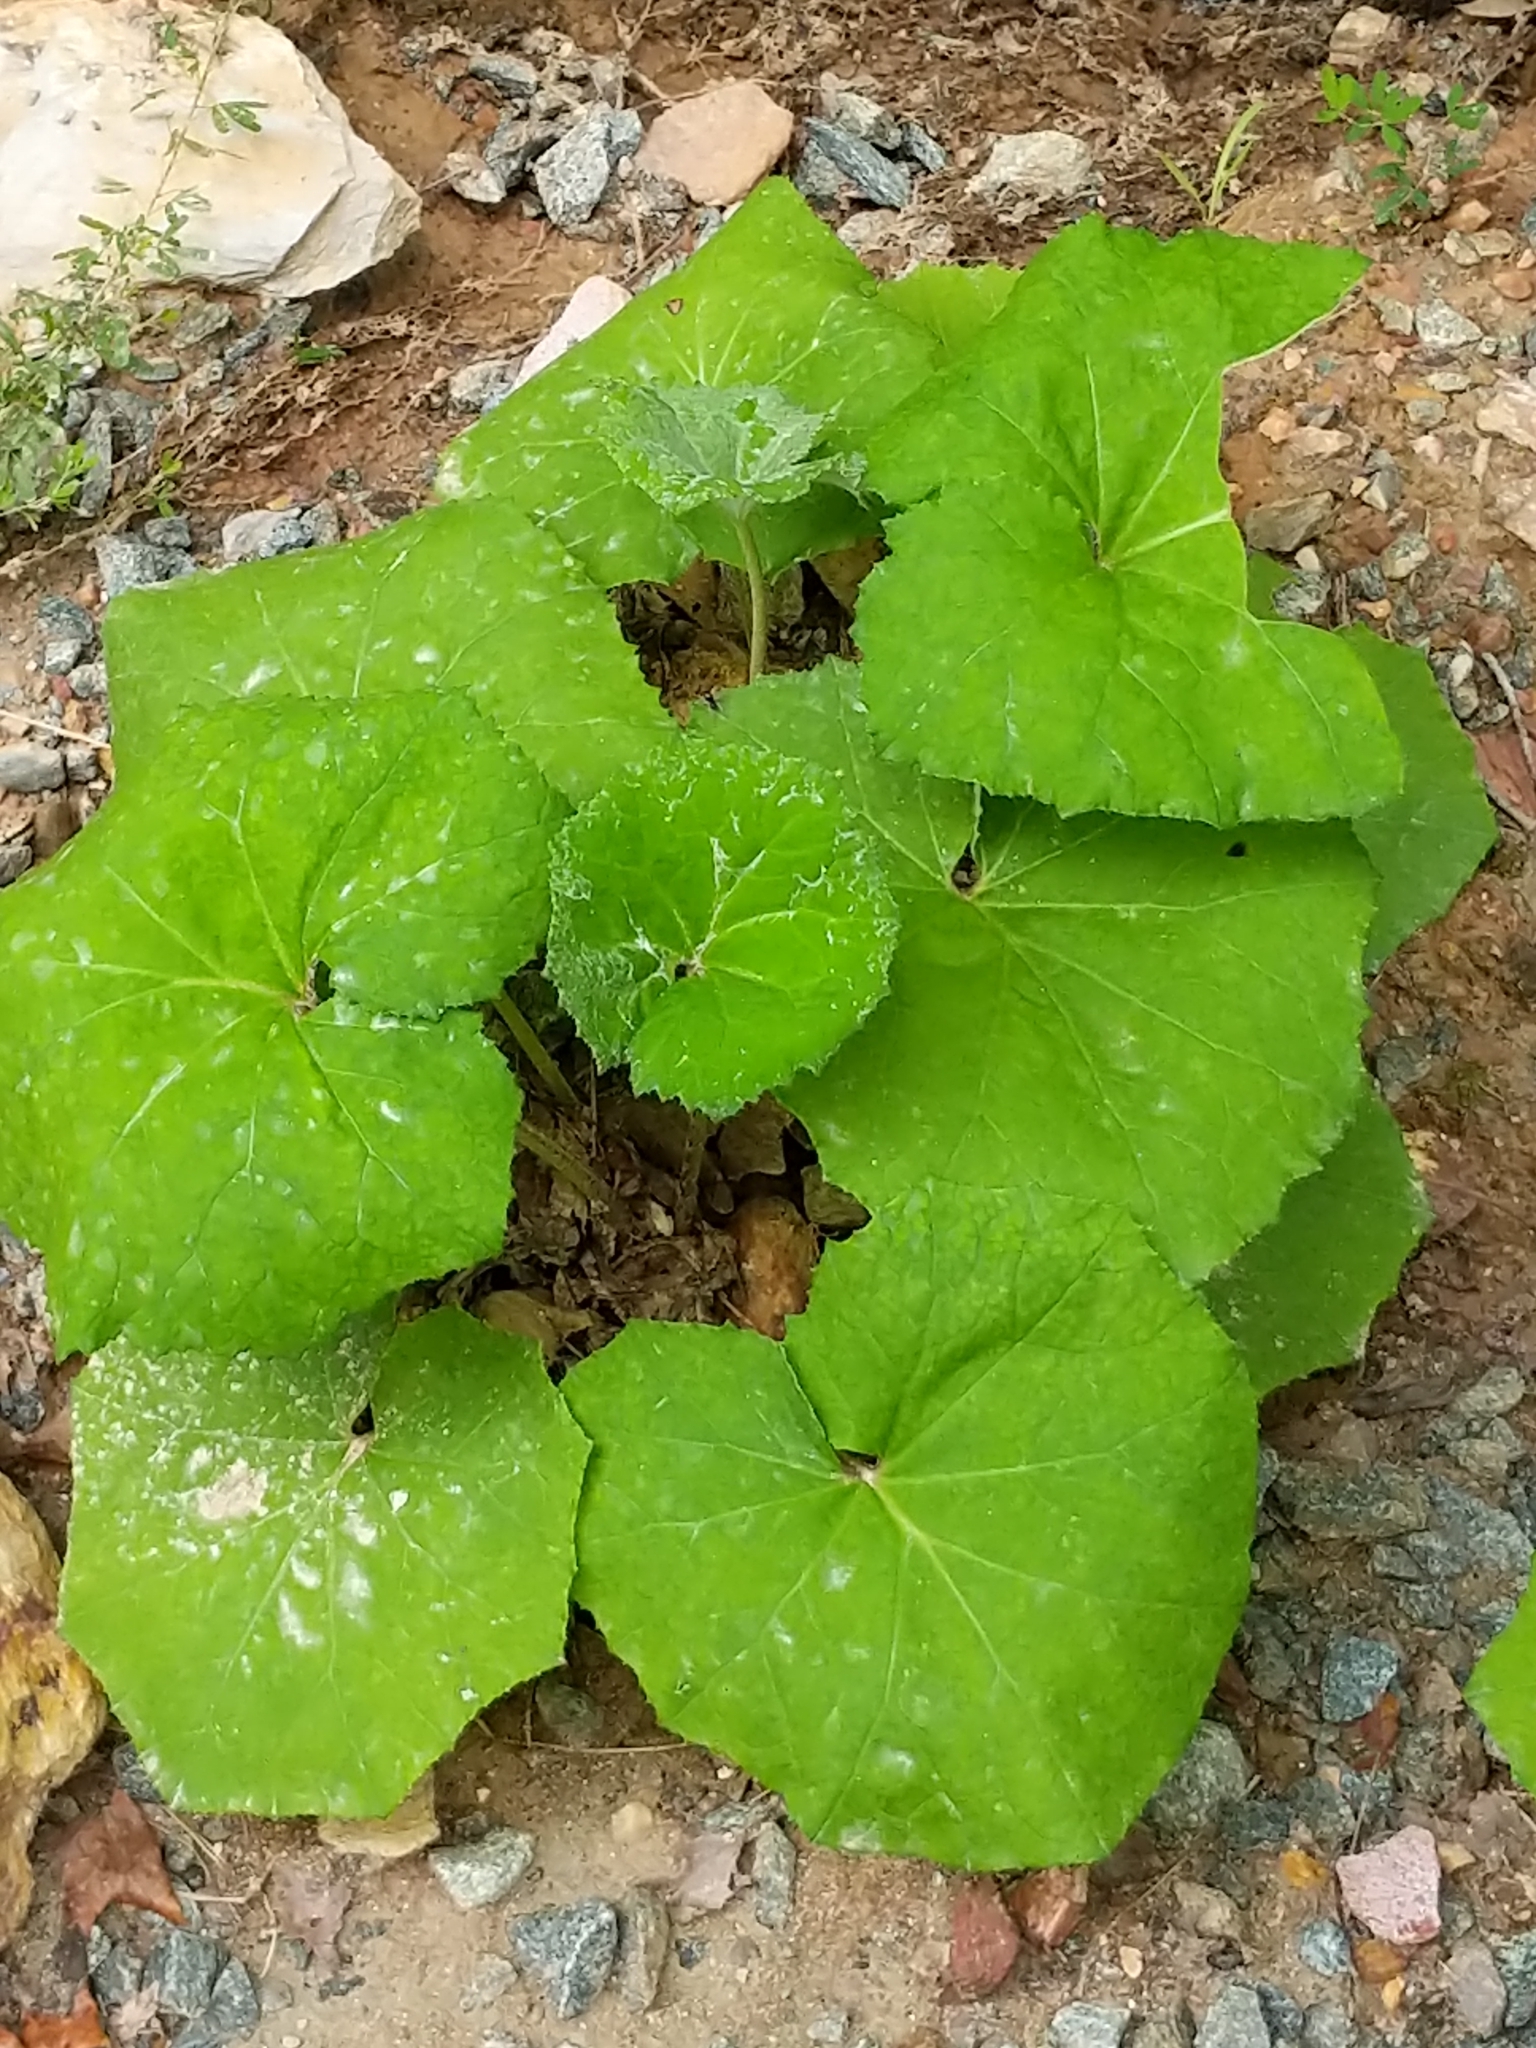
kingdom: Plantae
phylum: Tracheophyta
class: Magnoliopsida
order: Asterales
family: Asteraceae
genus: Tussilago
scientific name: Tussilago farfara
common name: Coltsfoot
